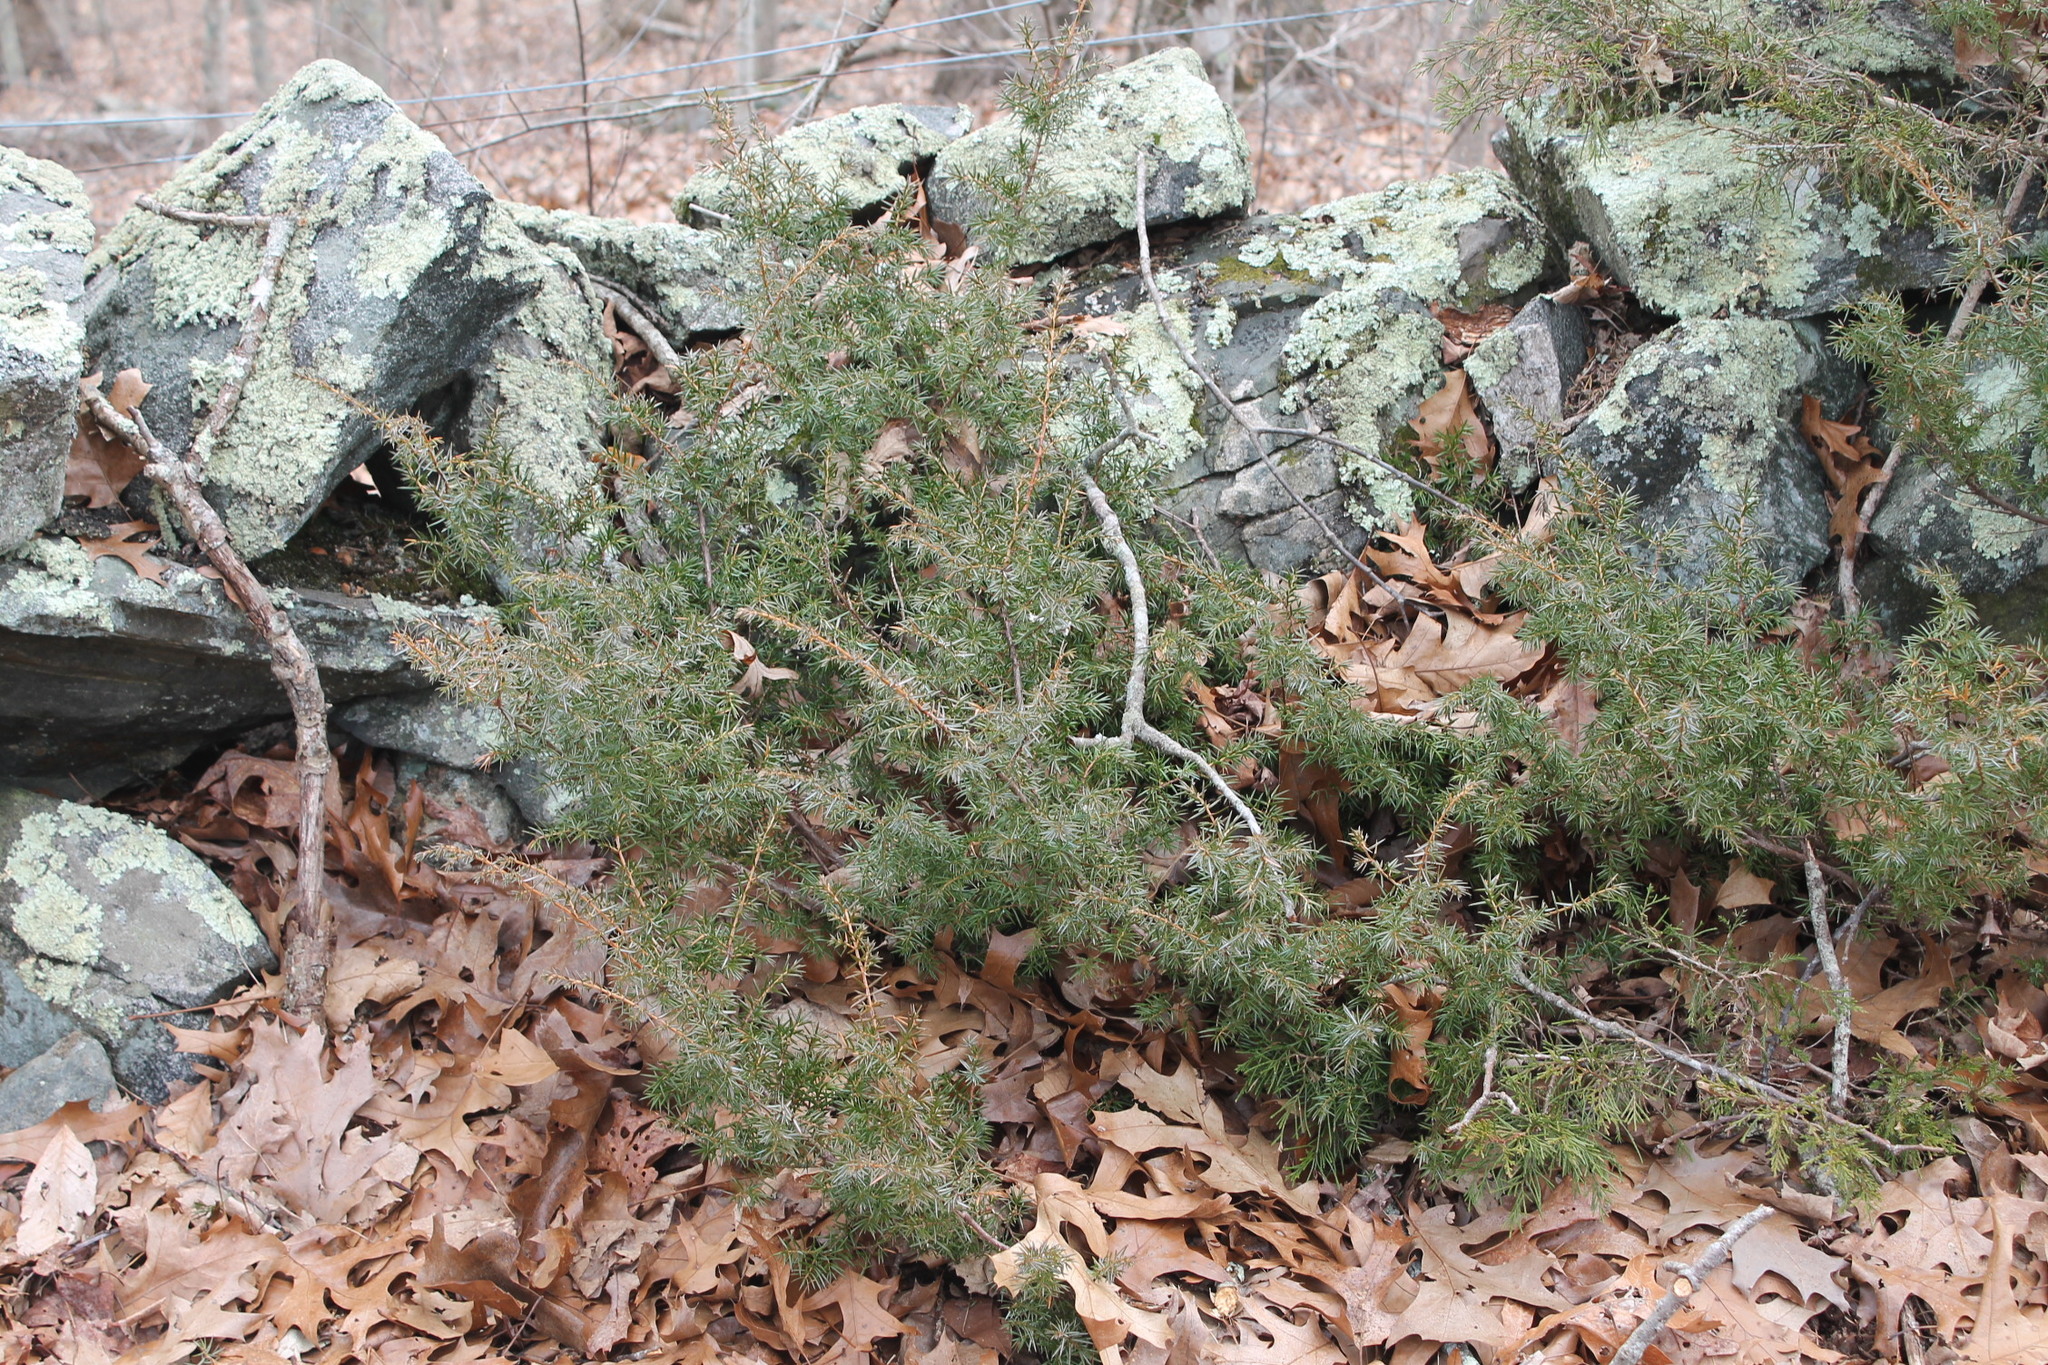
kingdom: Plantae
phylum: Tracheophyta
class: Pinopsida
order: Pinales
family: Cupressaceae
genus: Juniperus
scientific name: Juniperus communis
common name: Common juniper
